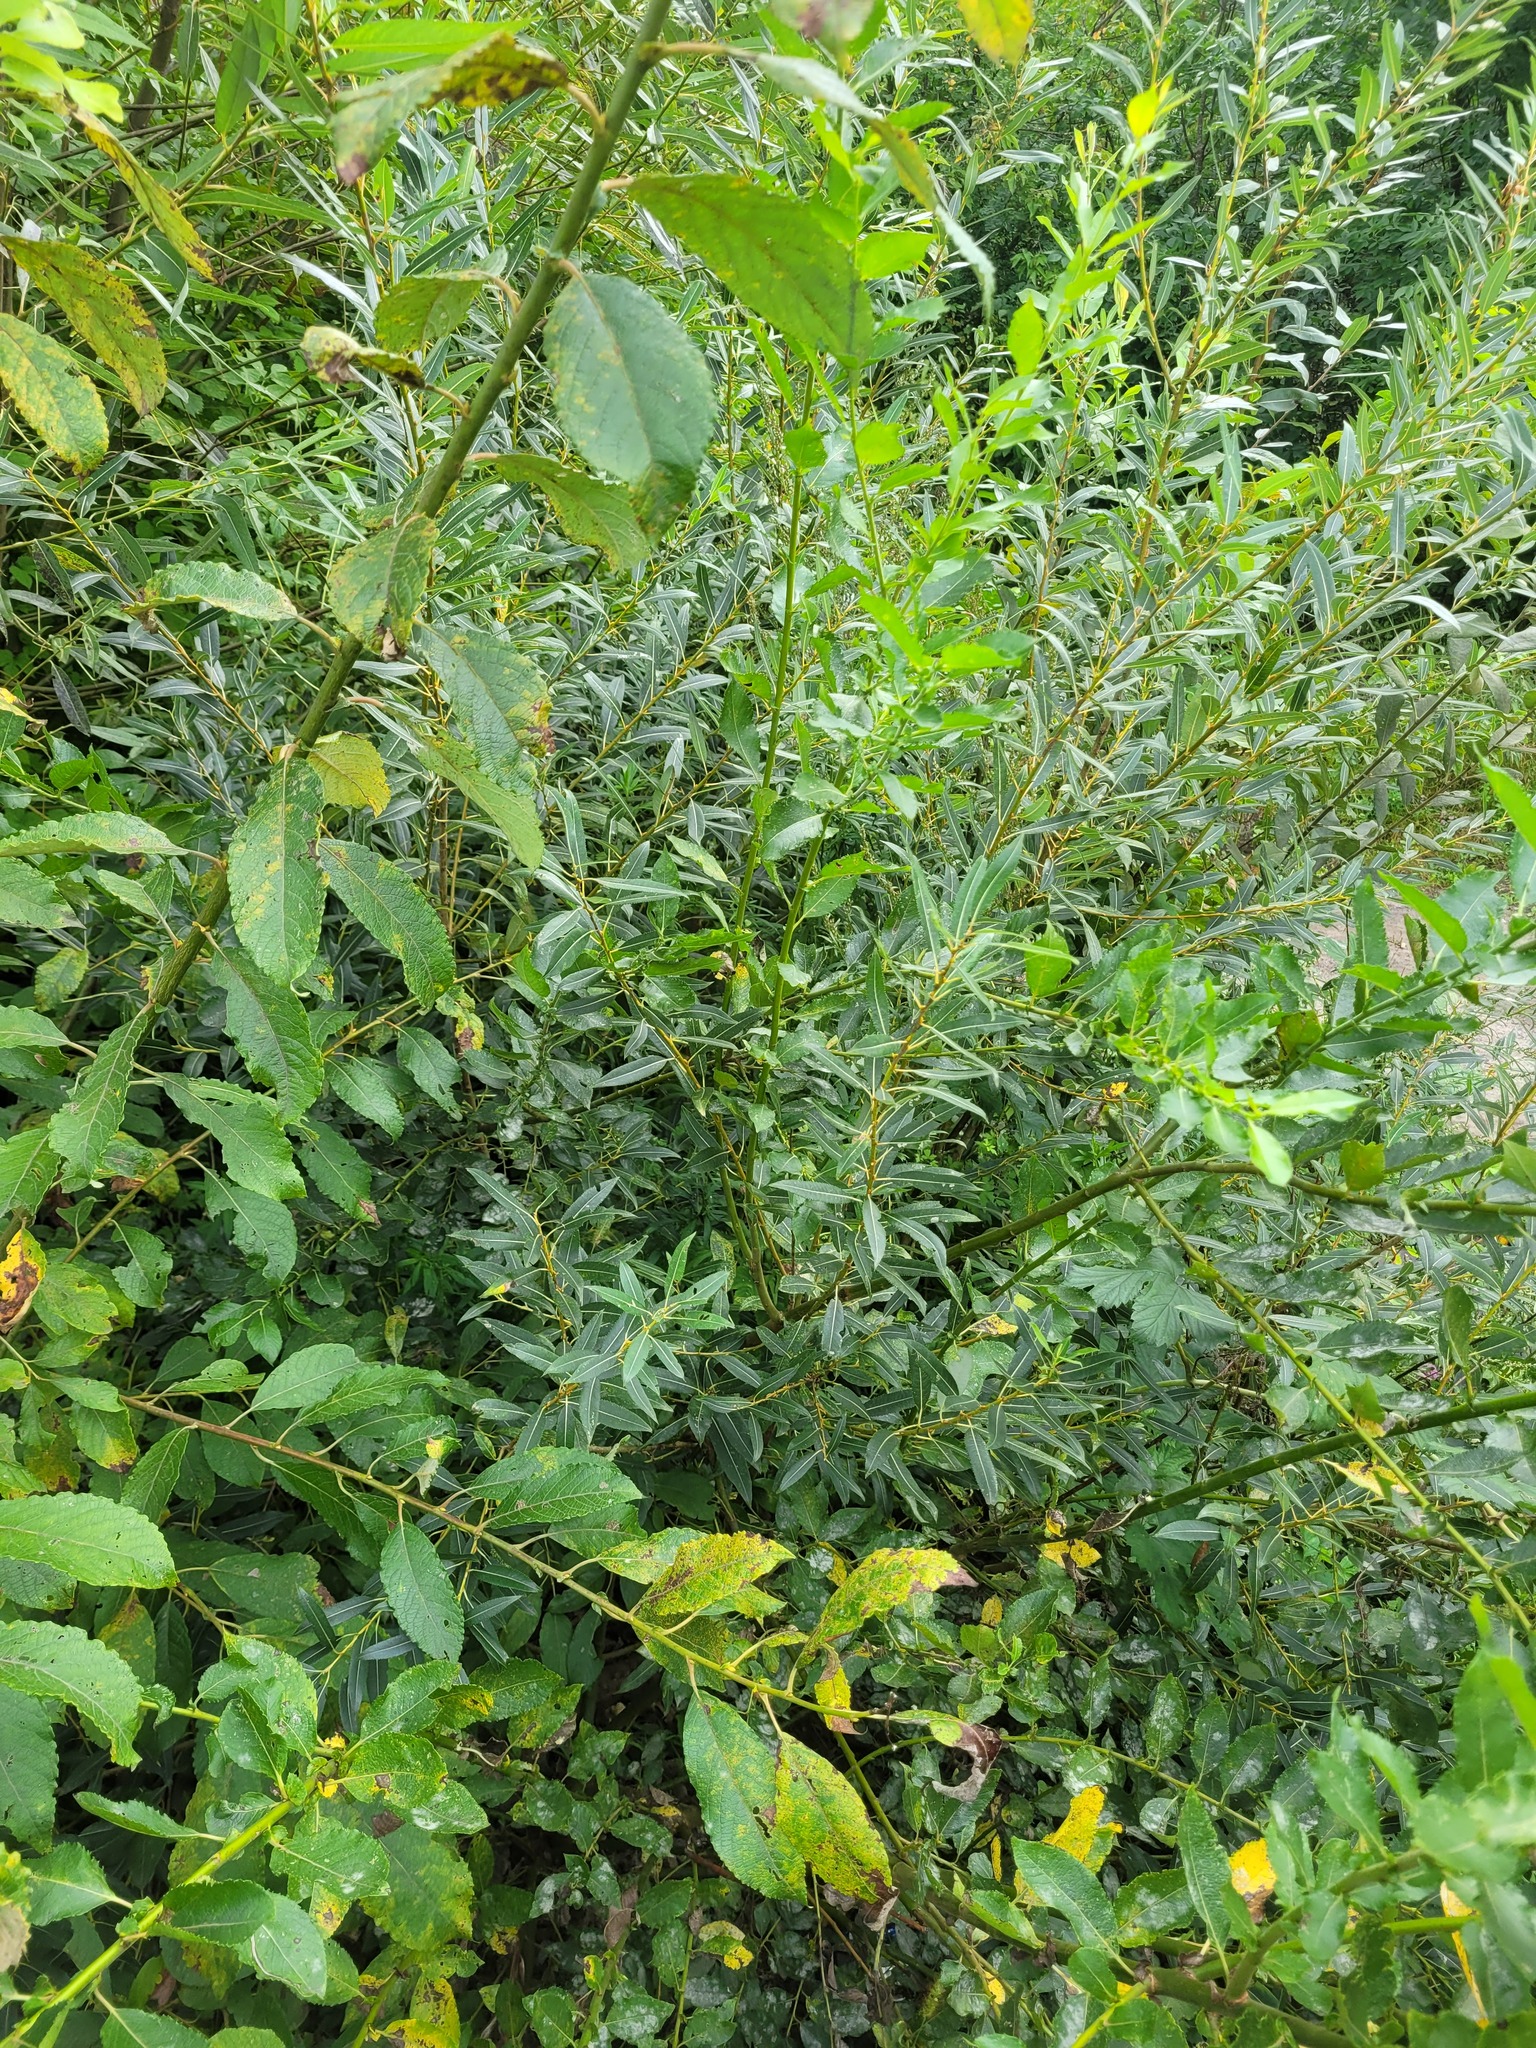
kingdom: Plantae
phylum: Tracheophyta
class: Magnoliopsida
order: Malpighiales
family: Salicaceae
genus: Salix
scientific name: Salix triandra
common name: Almond willow
